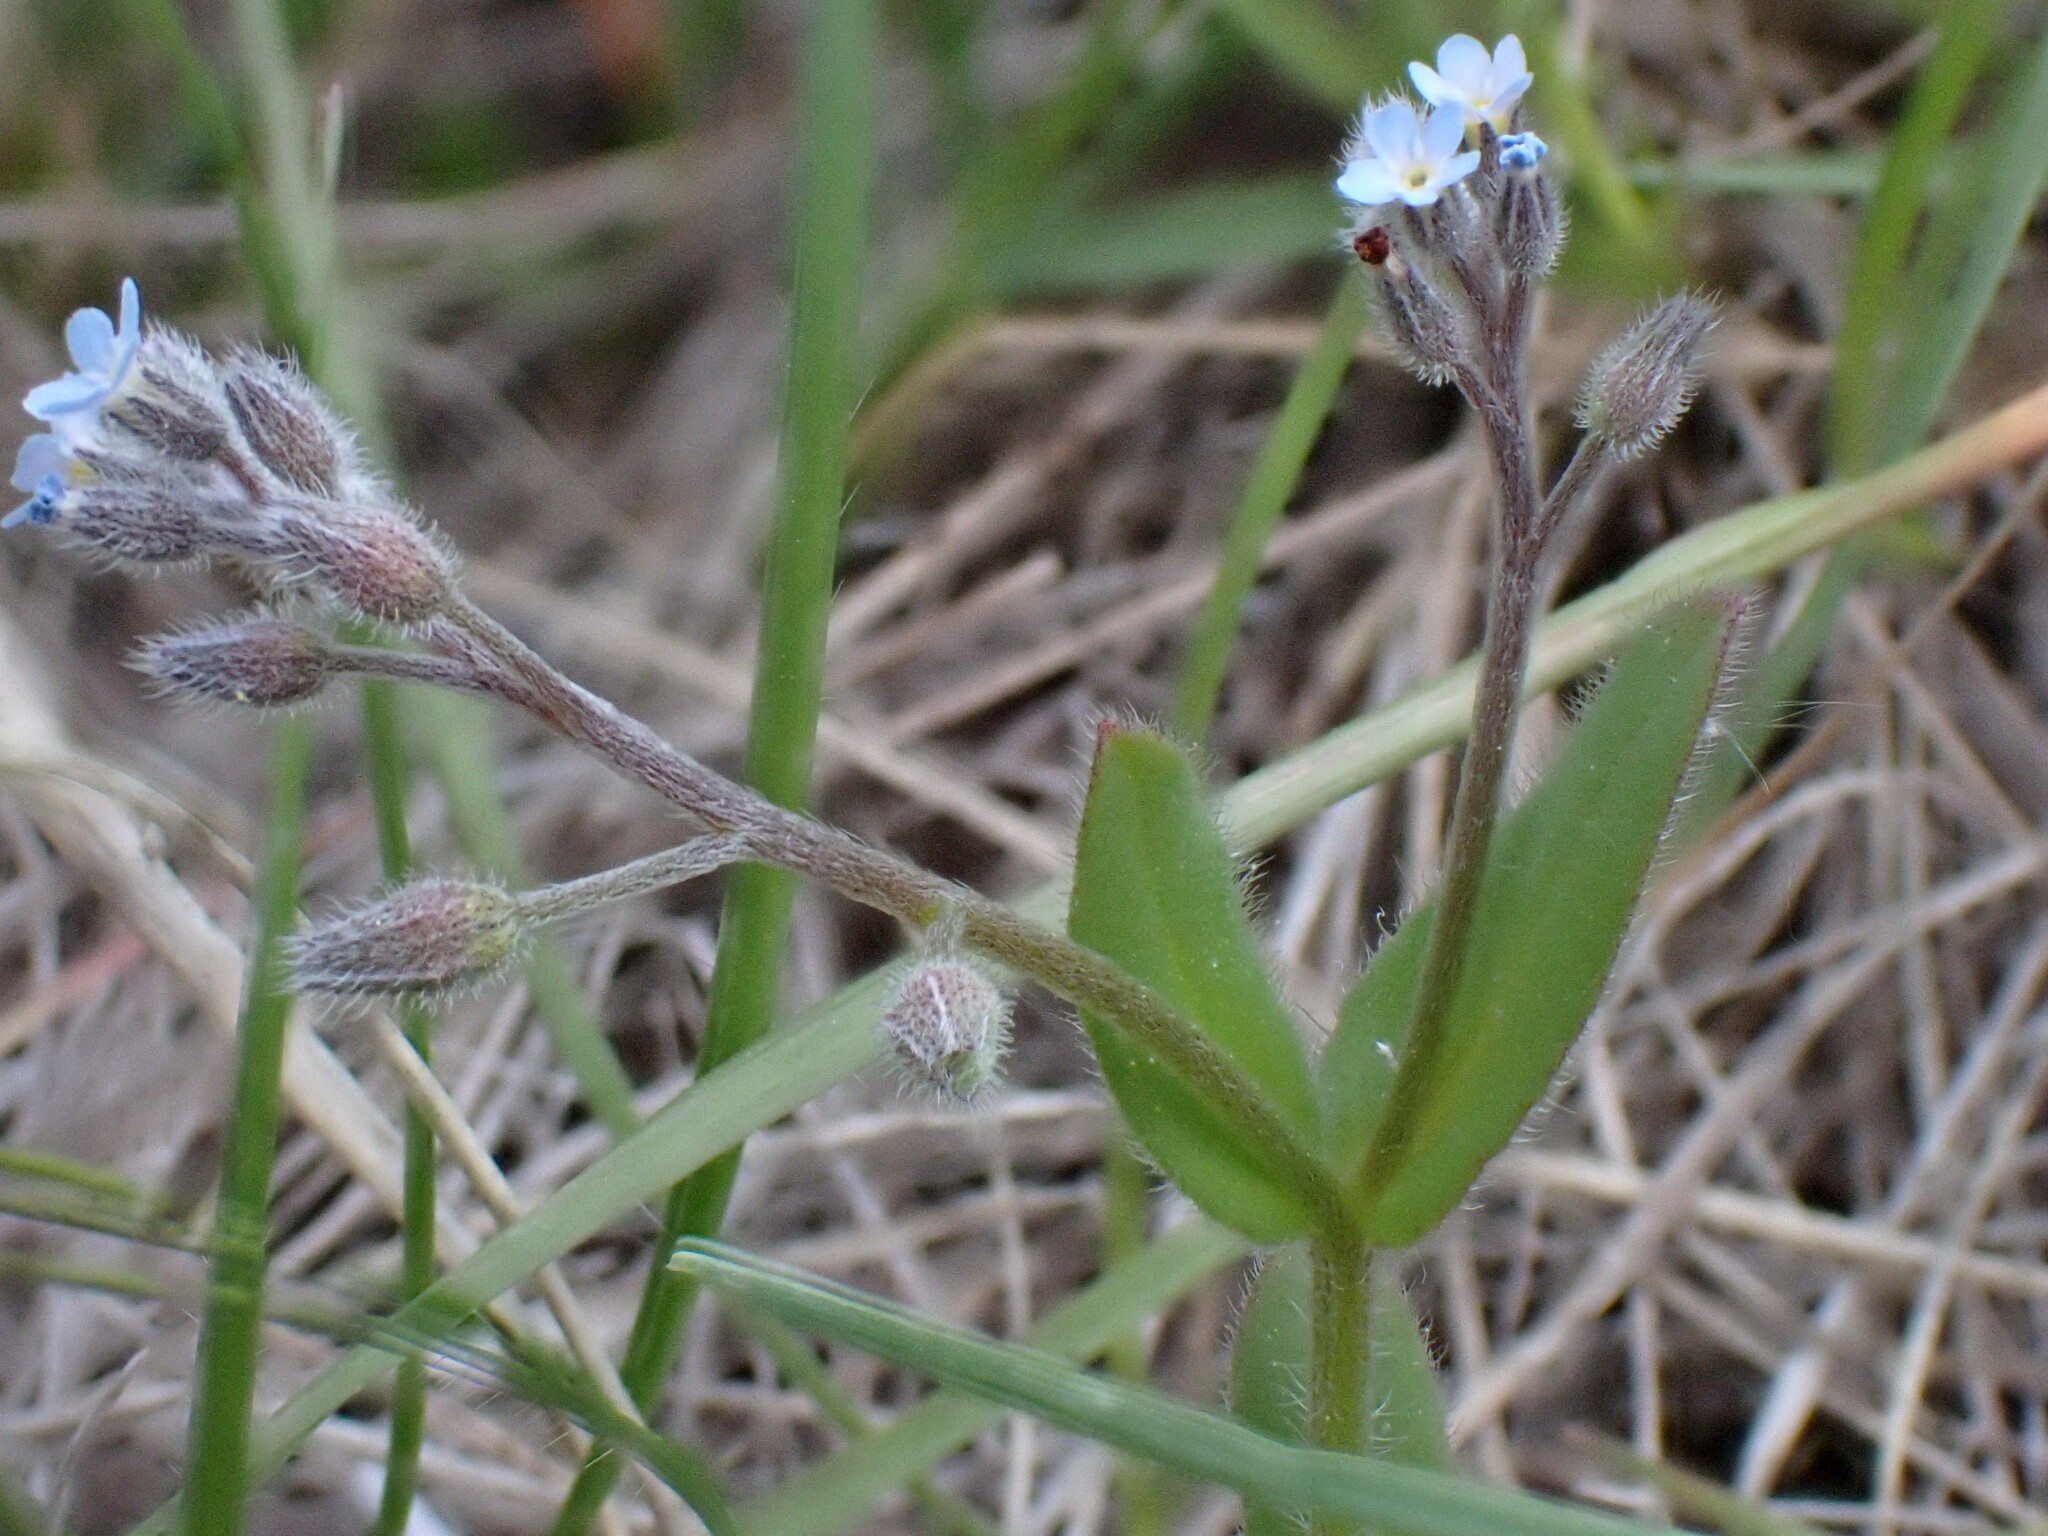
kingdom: Plantae
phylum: Tracheophyta
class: Magnoliopsida
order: Boraginales
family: Boraginaceae
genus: Myosotis
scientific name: Myosotis arvensis
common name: Field forget-me-not
